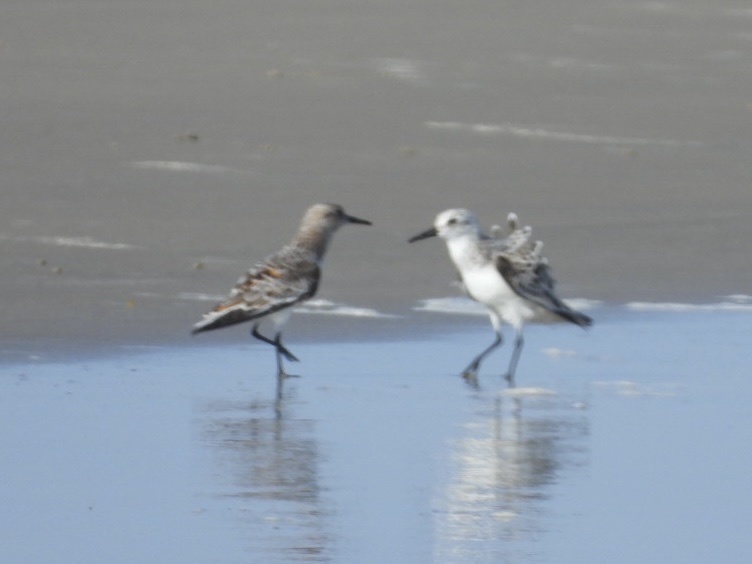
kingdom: Animalia
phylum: Chordata
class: Aves
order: Charadriiformes
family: Scolopacidae
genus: Calidris
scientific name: Calidris alba
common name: Sanderling
